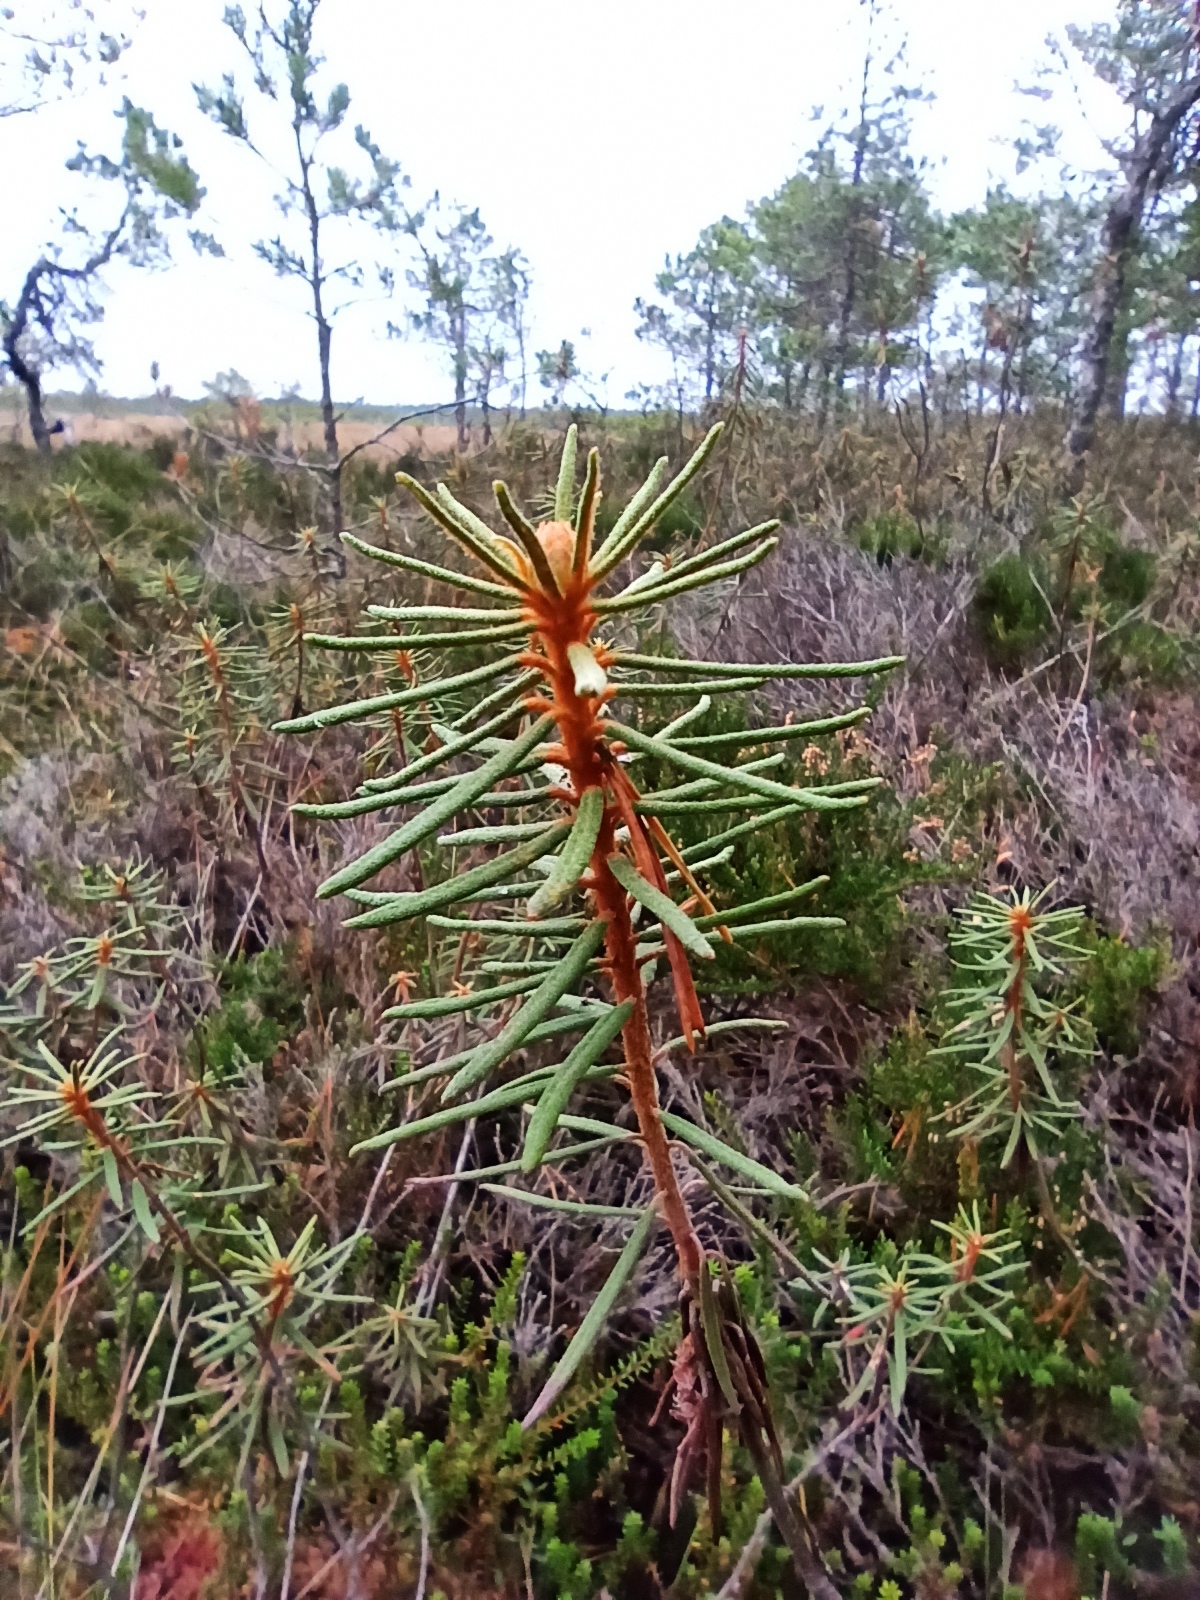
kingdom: Plantae
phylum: Tracheophyta
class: Magnoliopsida
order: Ericales
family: Ericaceae
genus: Rhododendron
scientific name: Rhododendron tomentosum
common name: Marsh labrador tea
